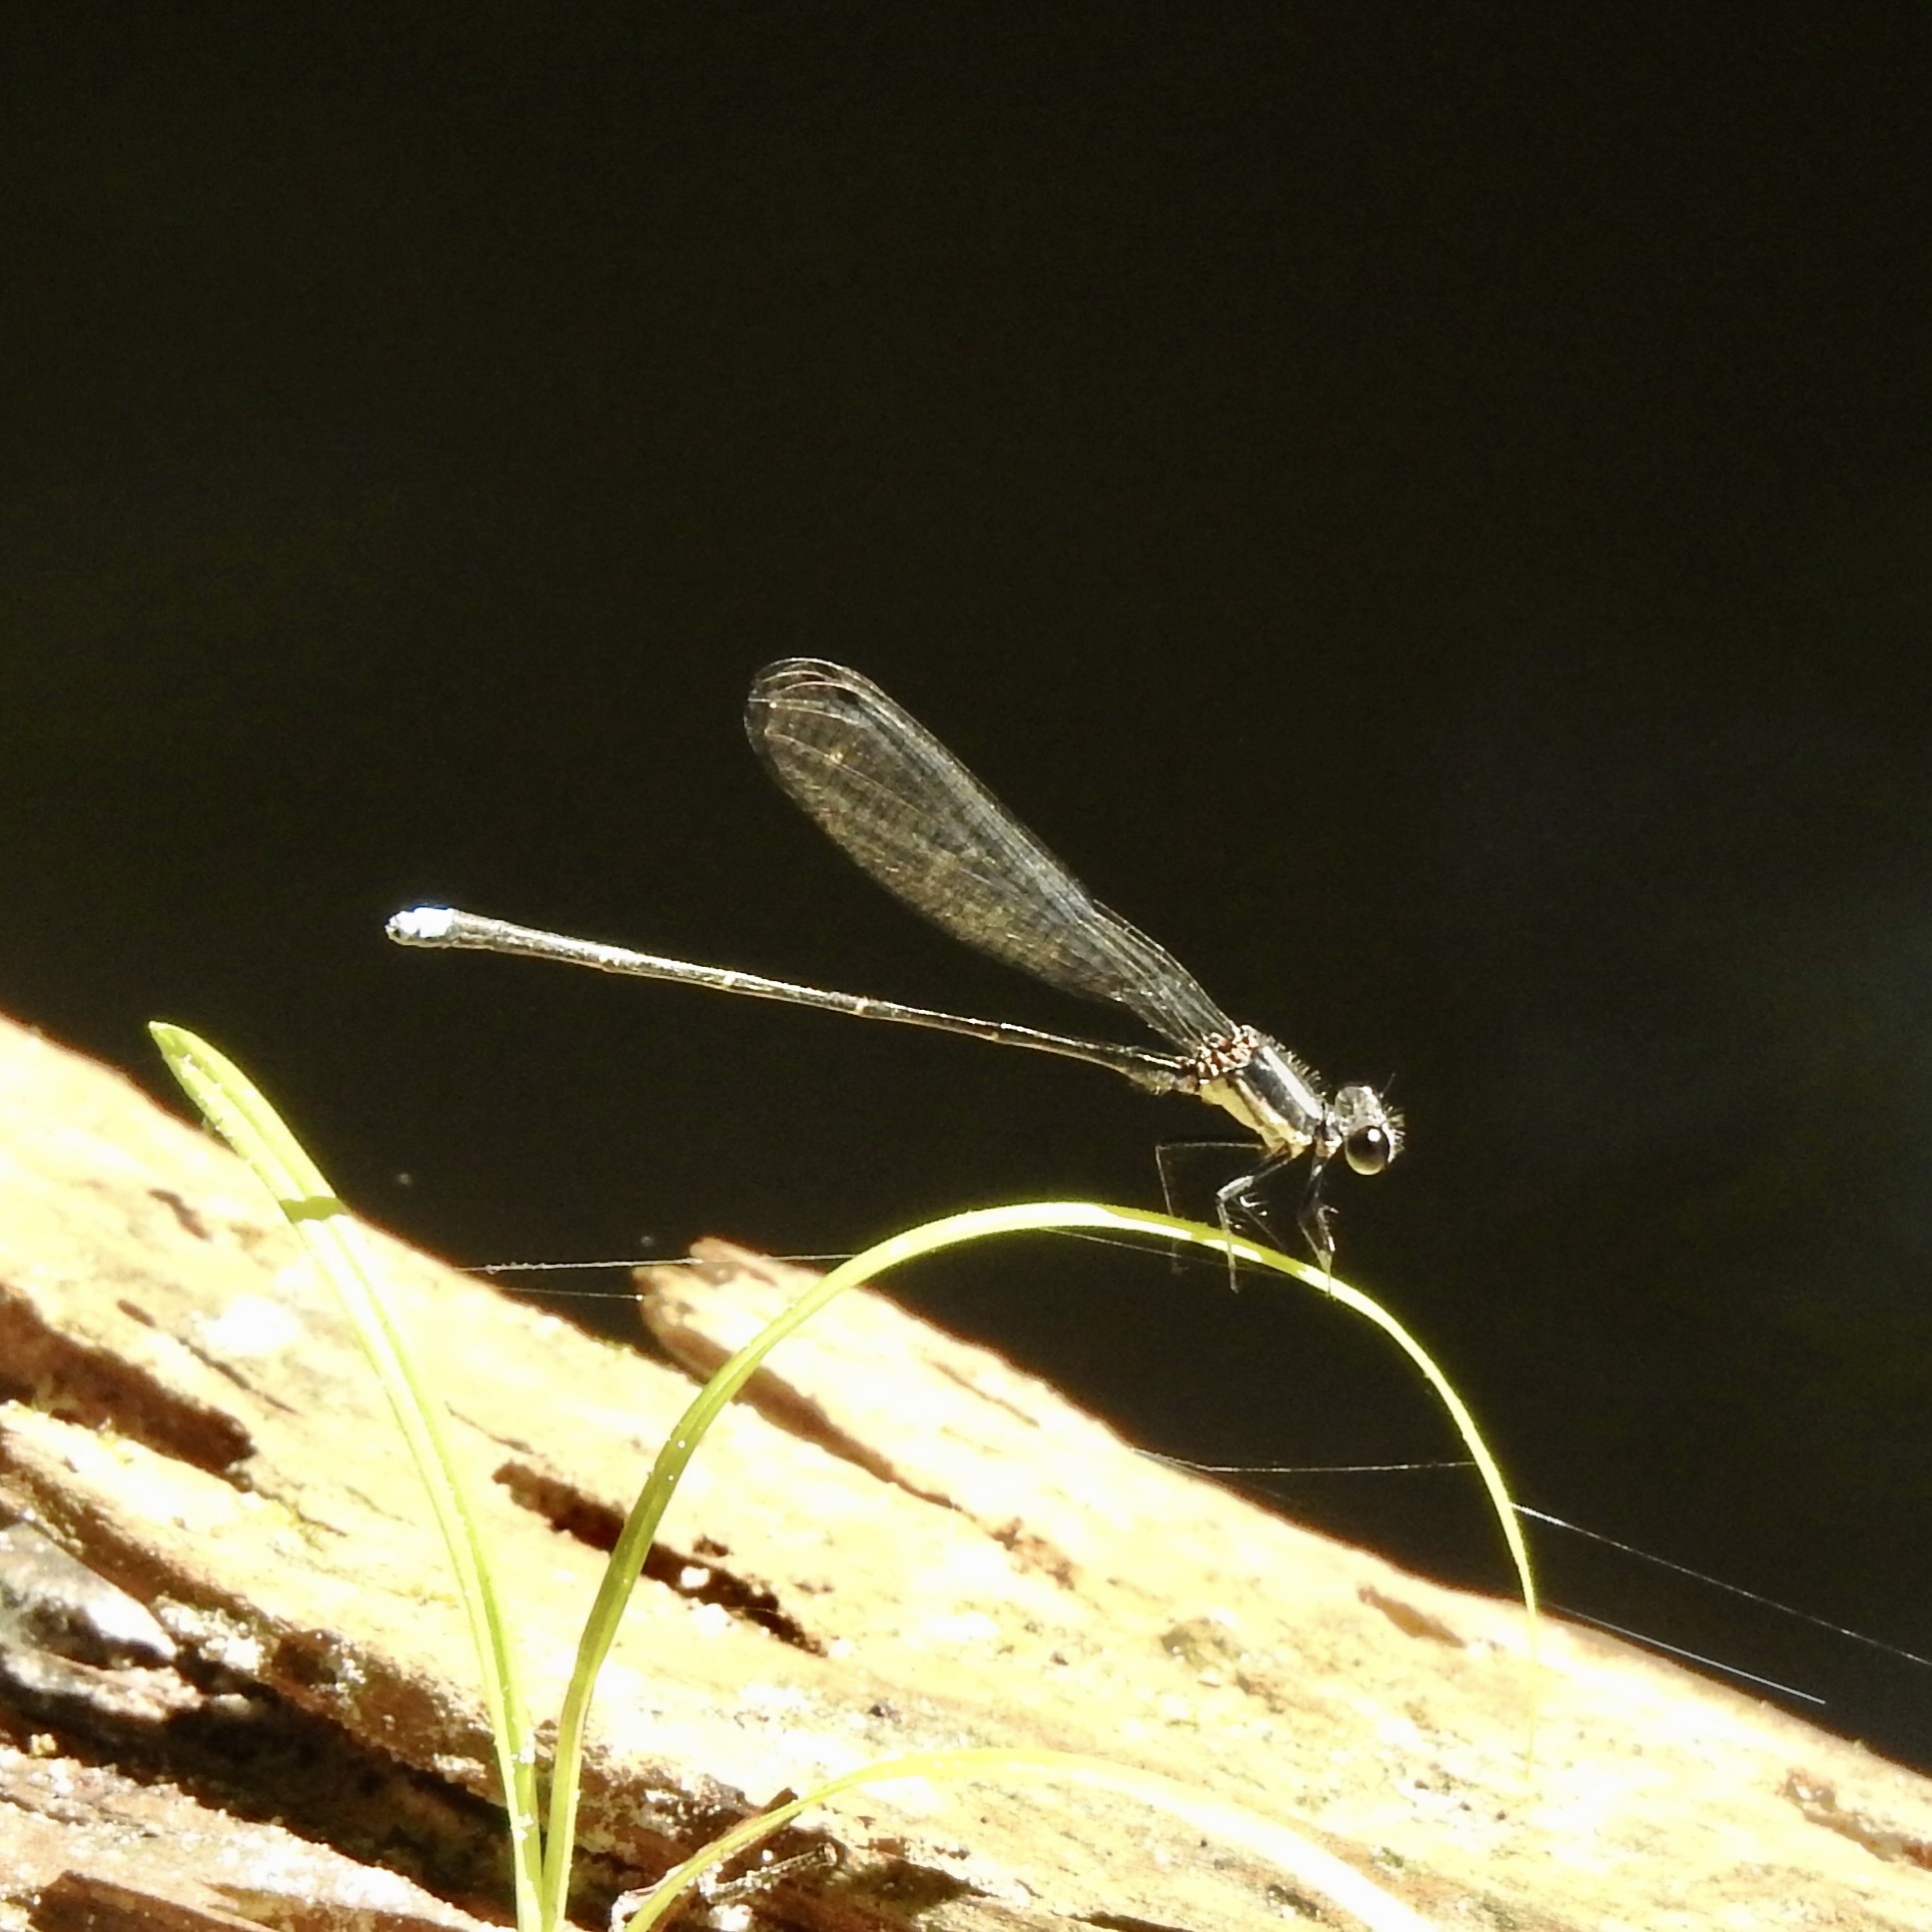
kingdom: Animalia
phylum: Arthropoda
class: Insecta
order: Odonata
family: Coenagrionidae
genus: Argia
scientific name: Argia tibialis
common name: Blue-tipped dancer
